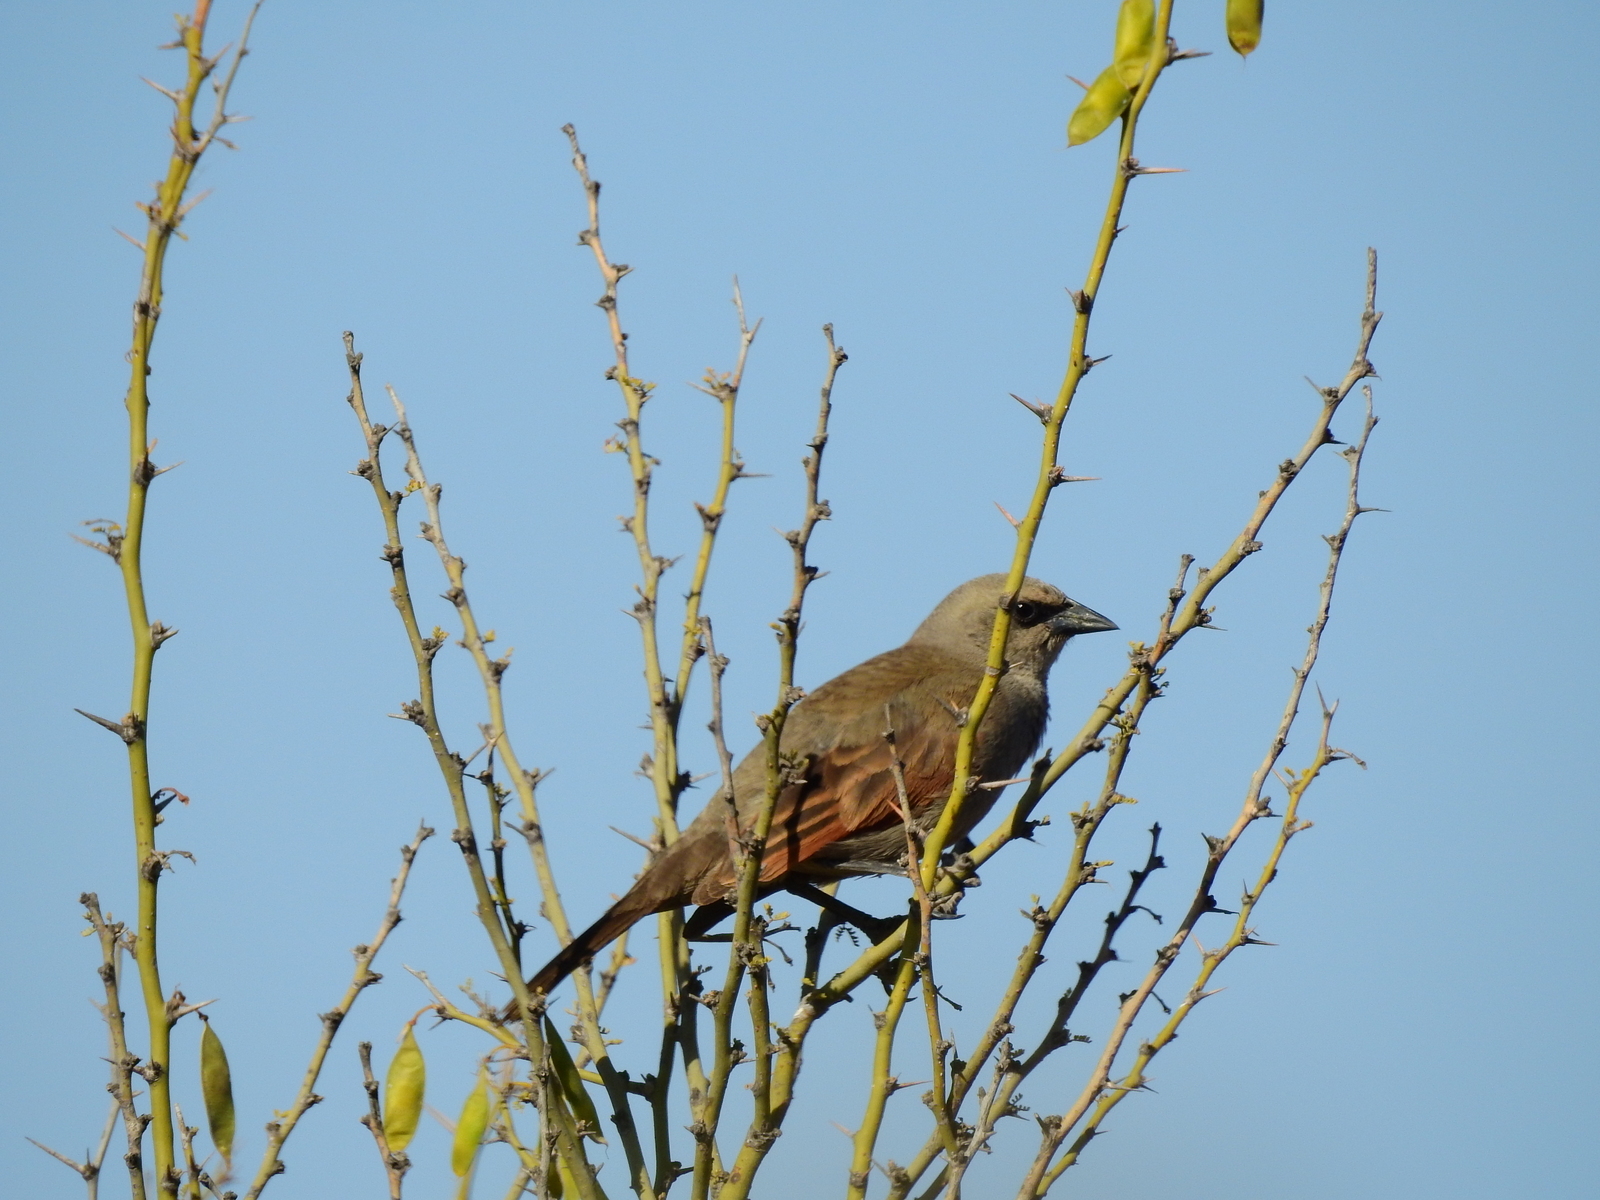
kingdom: Animalia
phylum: Chordata
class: Aves
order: Passeriformes
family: Icteridae
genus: Agelaioides
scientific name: Agelaioides badius
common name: Baywing
